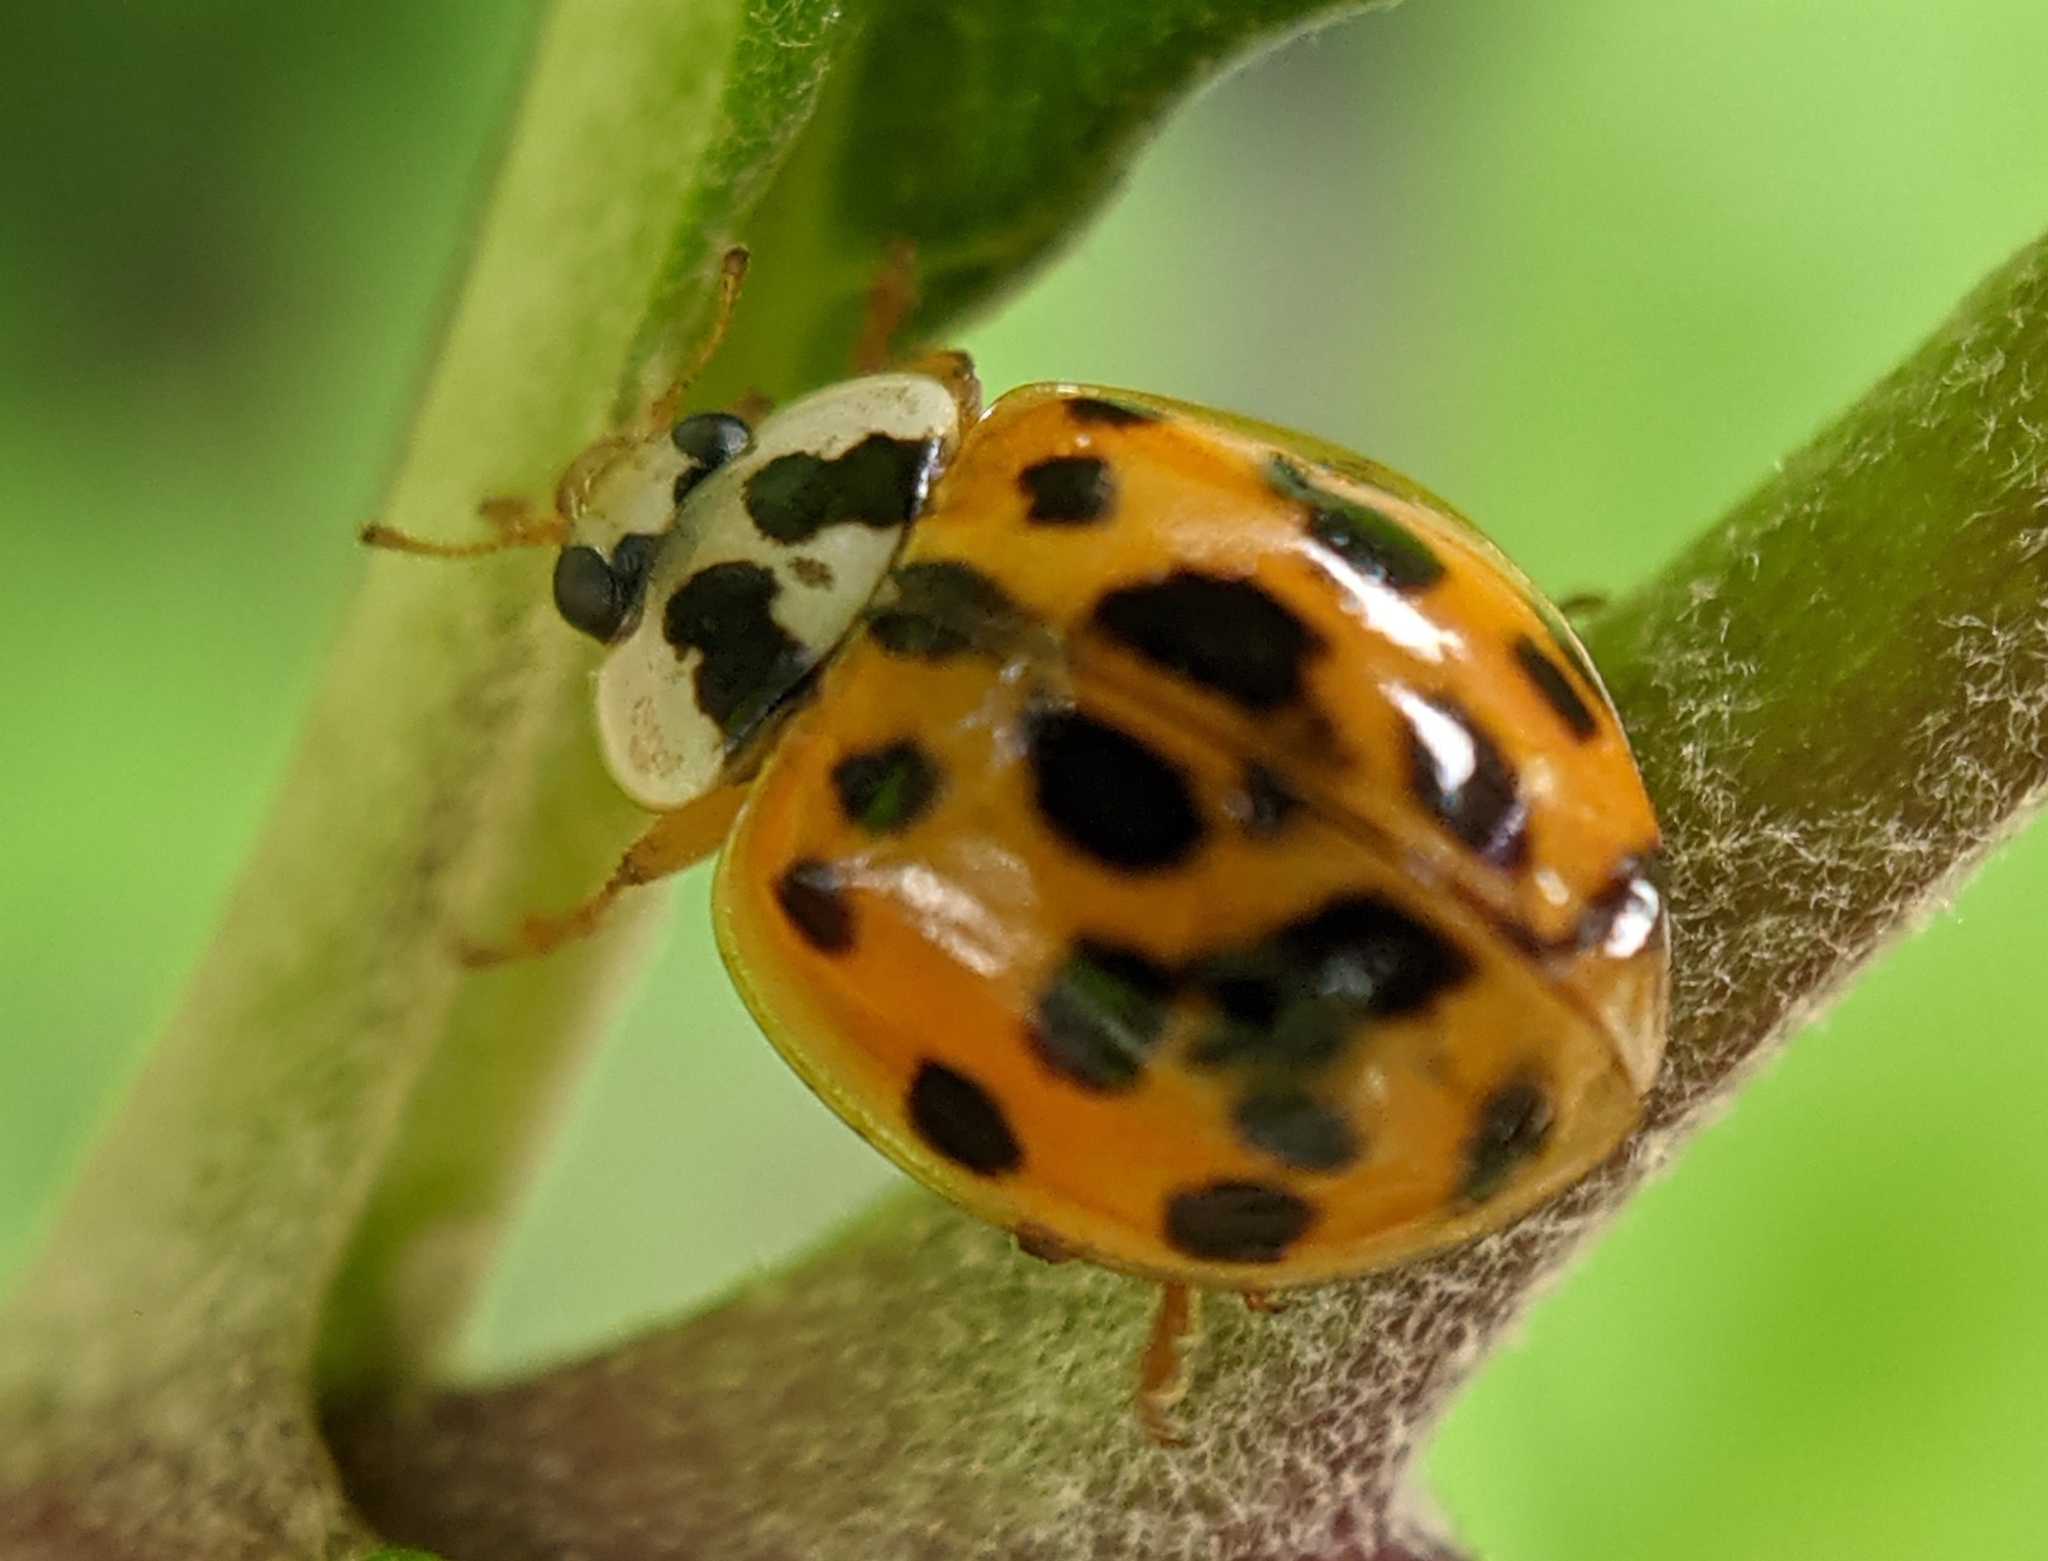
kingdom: Animalia
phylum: Arthropoda
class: Insecta
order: Coleoptera
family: Coccinellidae
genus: Harmonia
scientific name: Harmonia axyridis
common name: Harlequin ladybird
